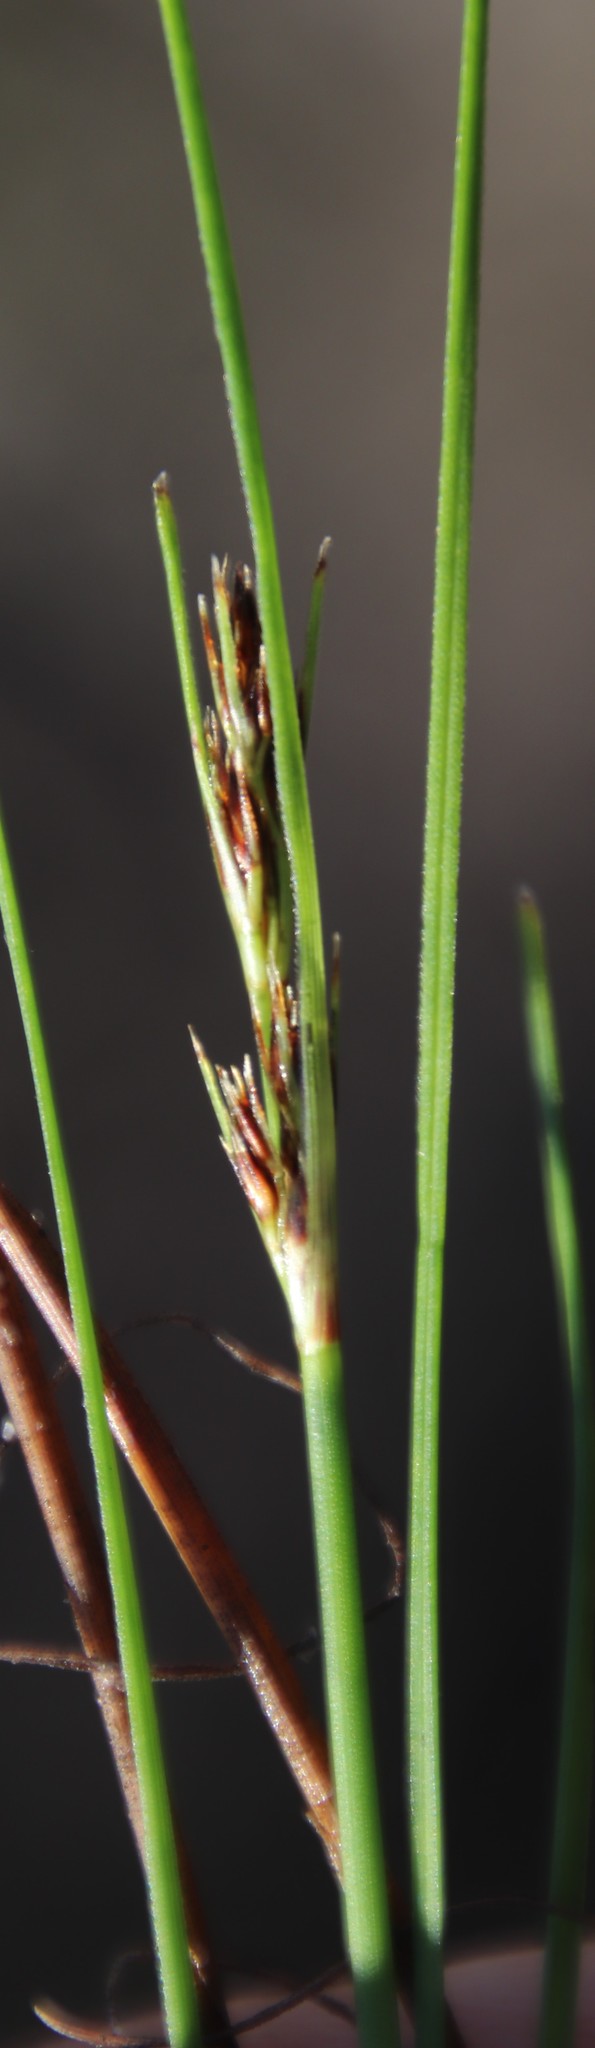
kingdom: Plantae
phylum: Tracheophyta
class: Liliopsida
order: Poales
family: Cyperaceae
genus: Schoenus
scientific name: Schoenus auritus
